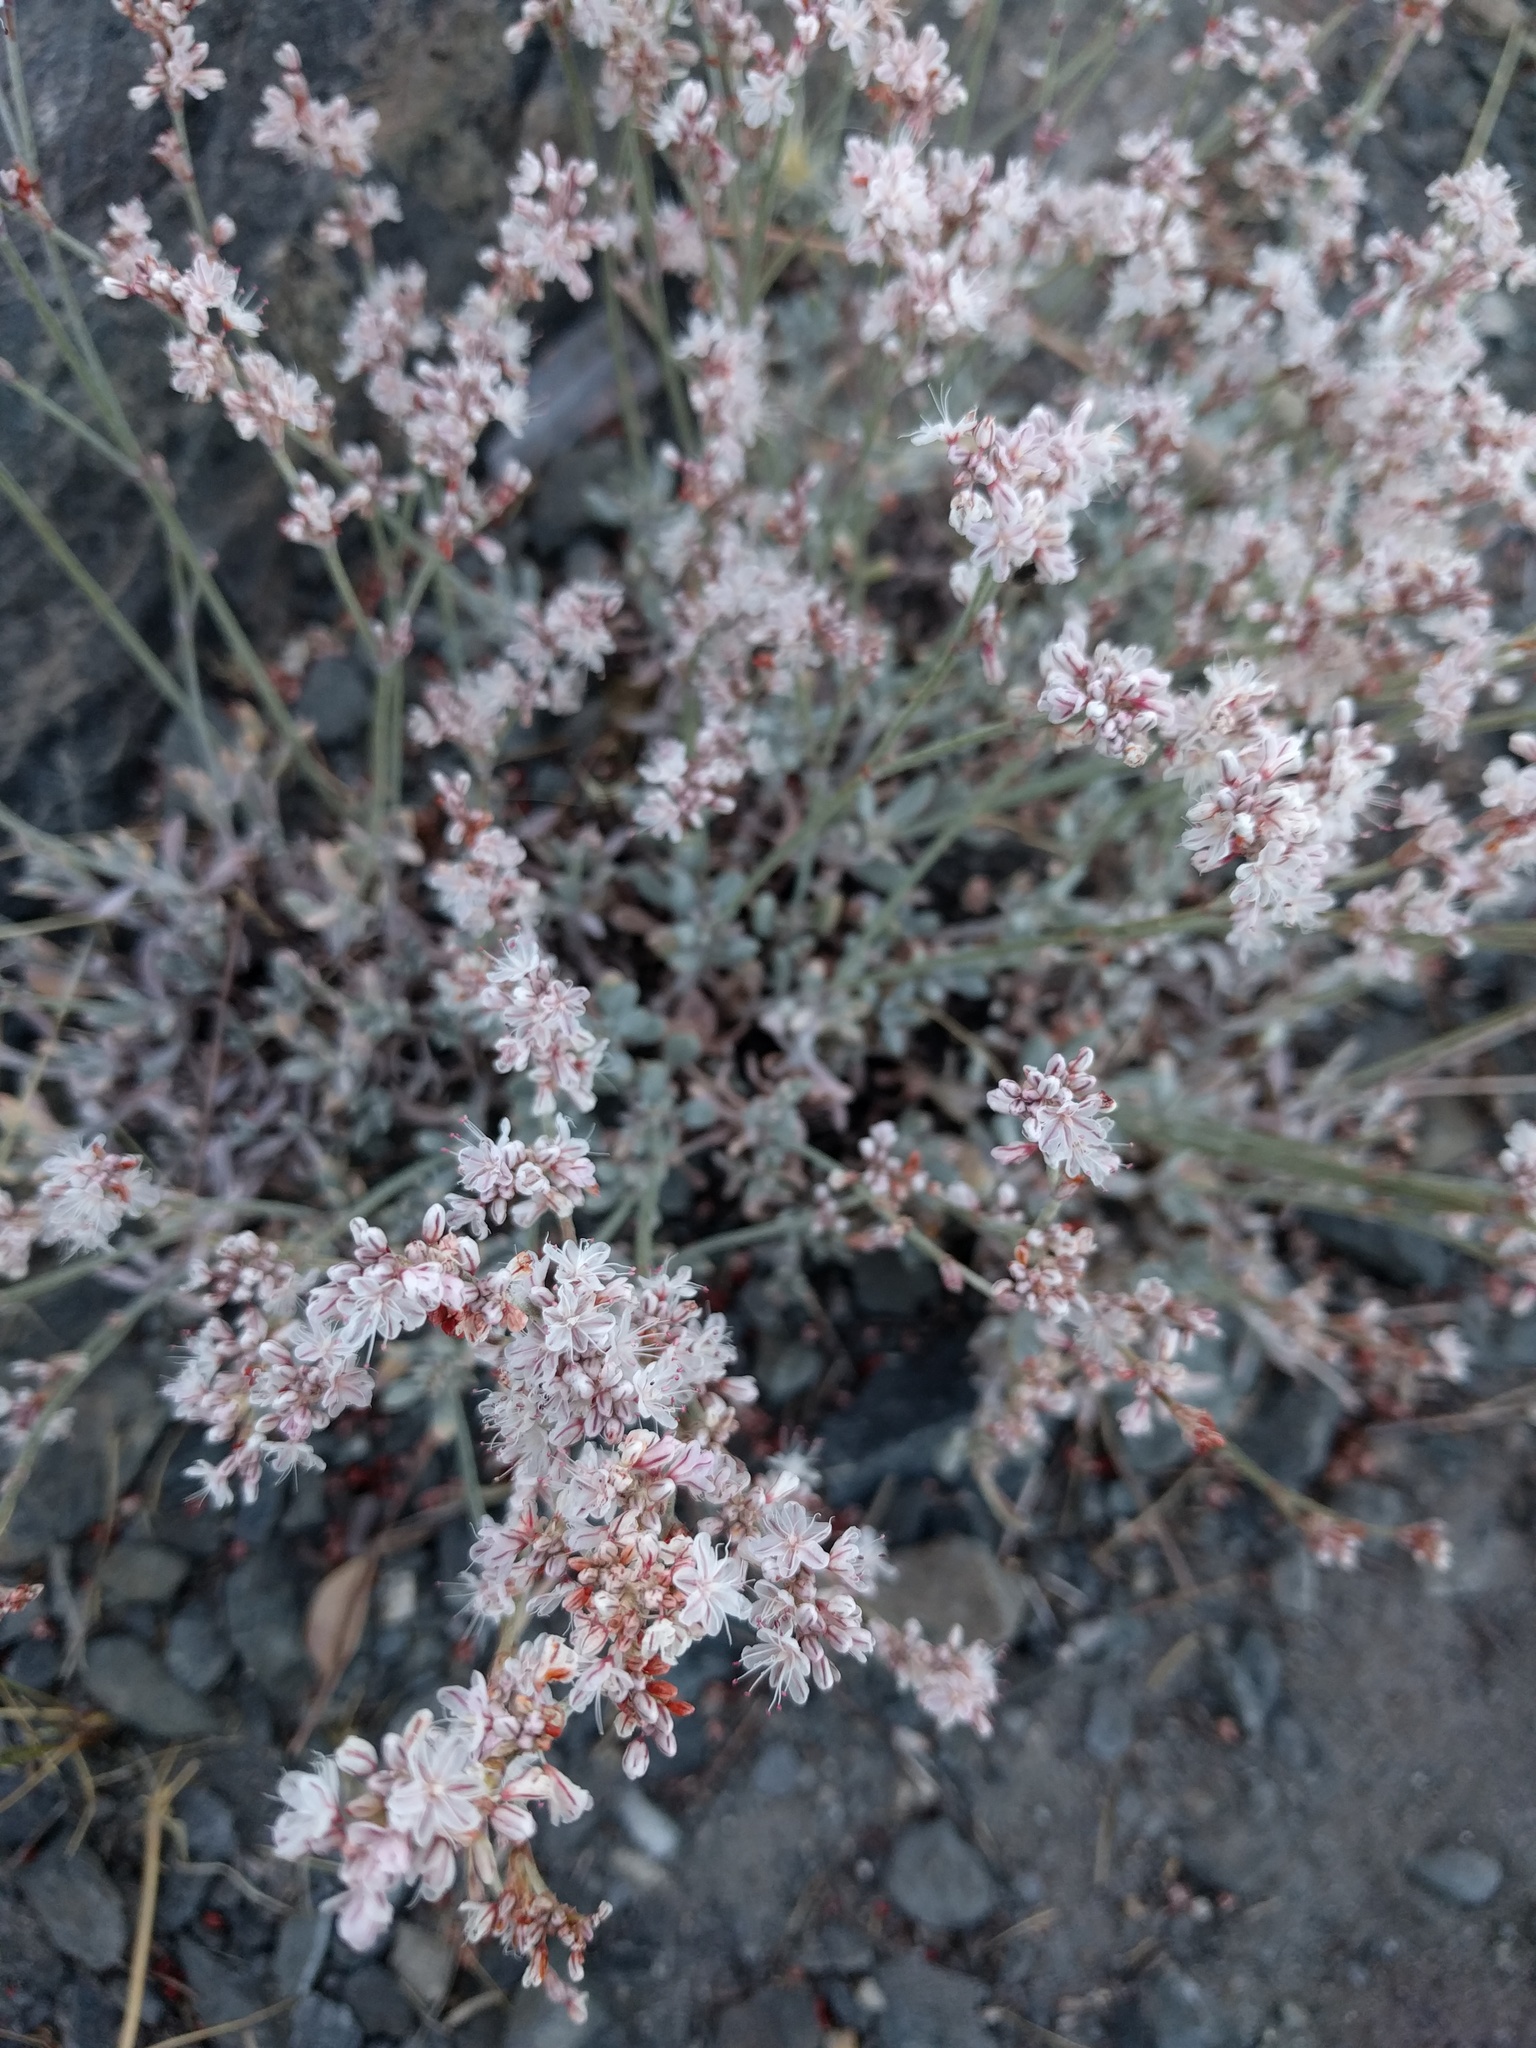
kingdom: Plantae
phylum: Tracheophyta
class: Magnoliopsida
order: Caryophyllales
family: Polygonaceae
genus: Eriogonum
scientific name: Eriogonum wrightii
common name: Bastard-sage
